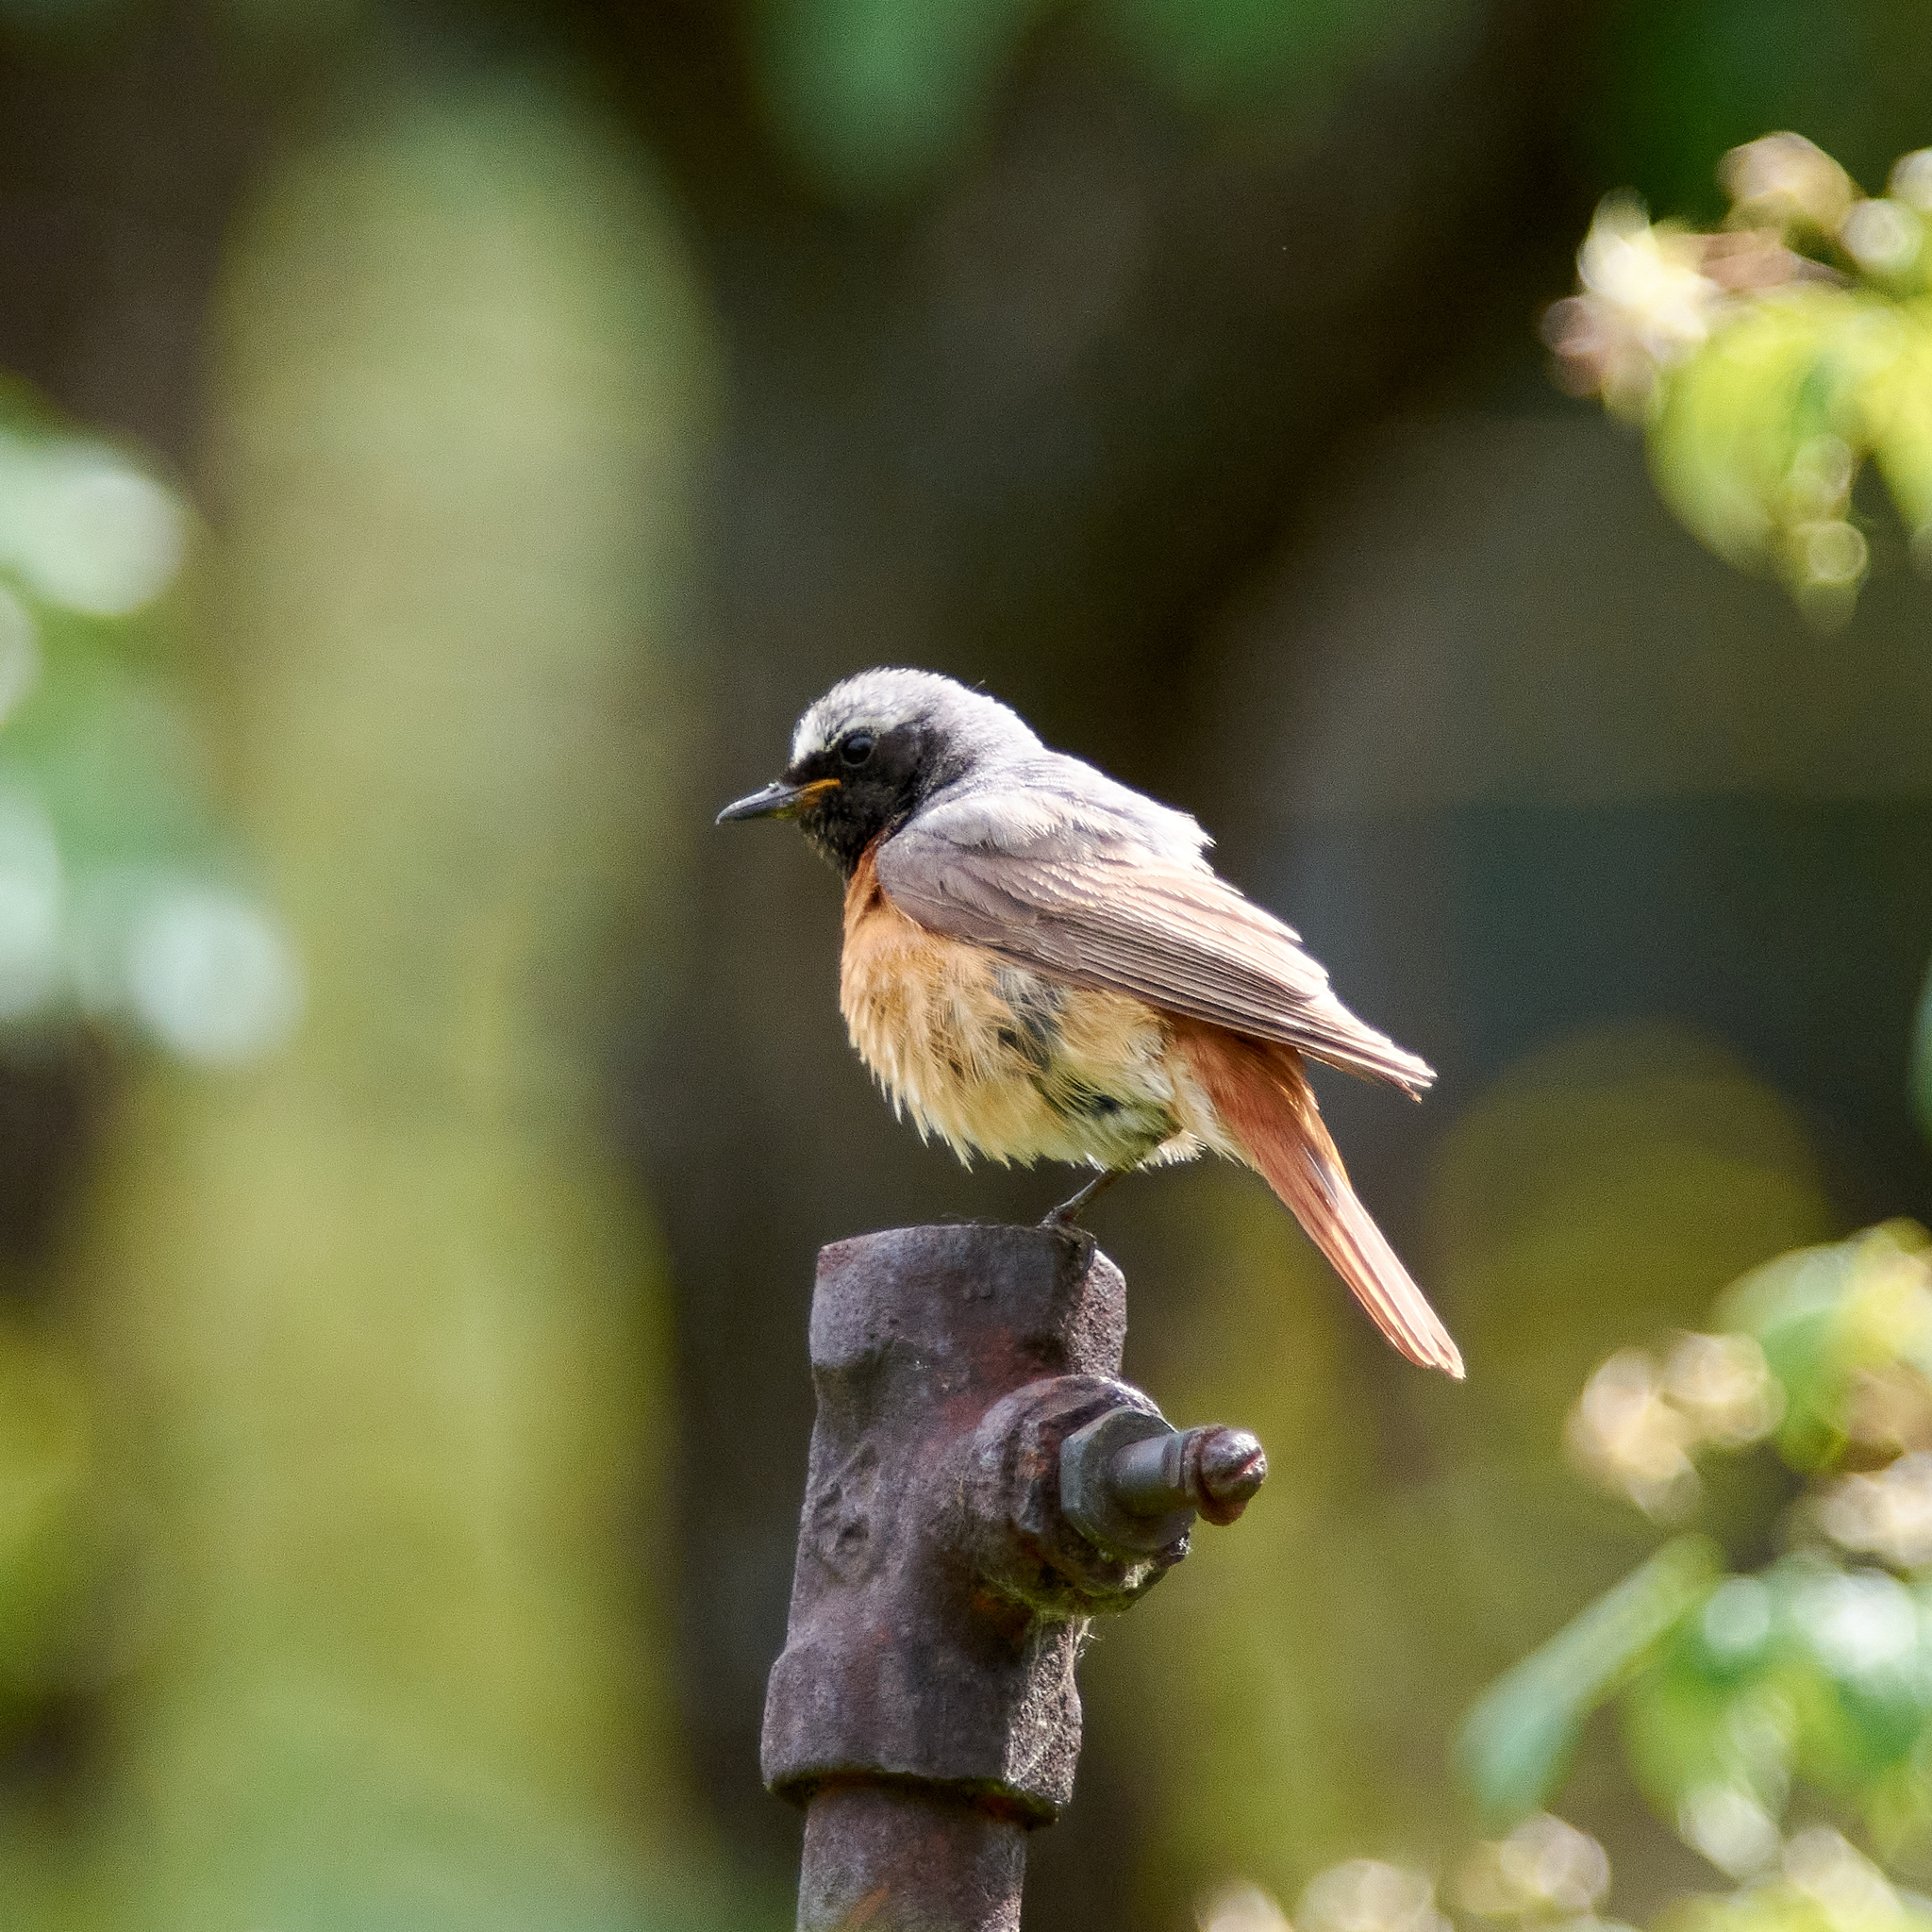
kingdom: Animalia
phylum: Chordata
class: Aves
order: Passeriformes
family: Muscicapidae
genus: Phoenicurus
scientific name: Phoenicurus phoenicurus
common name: Common redstart
